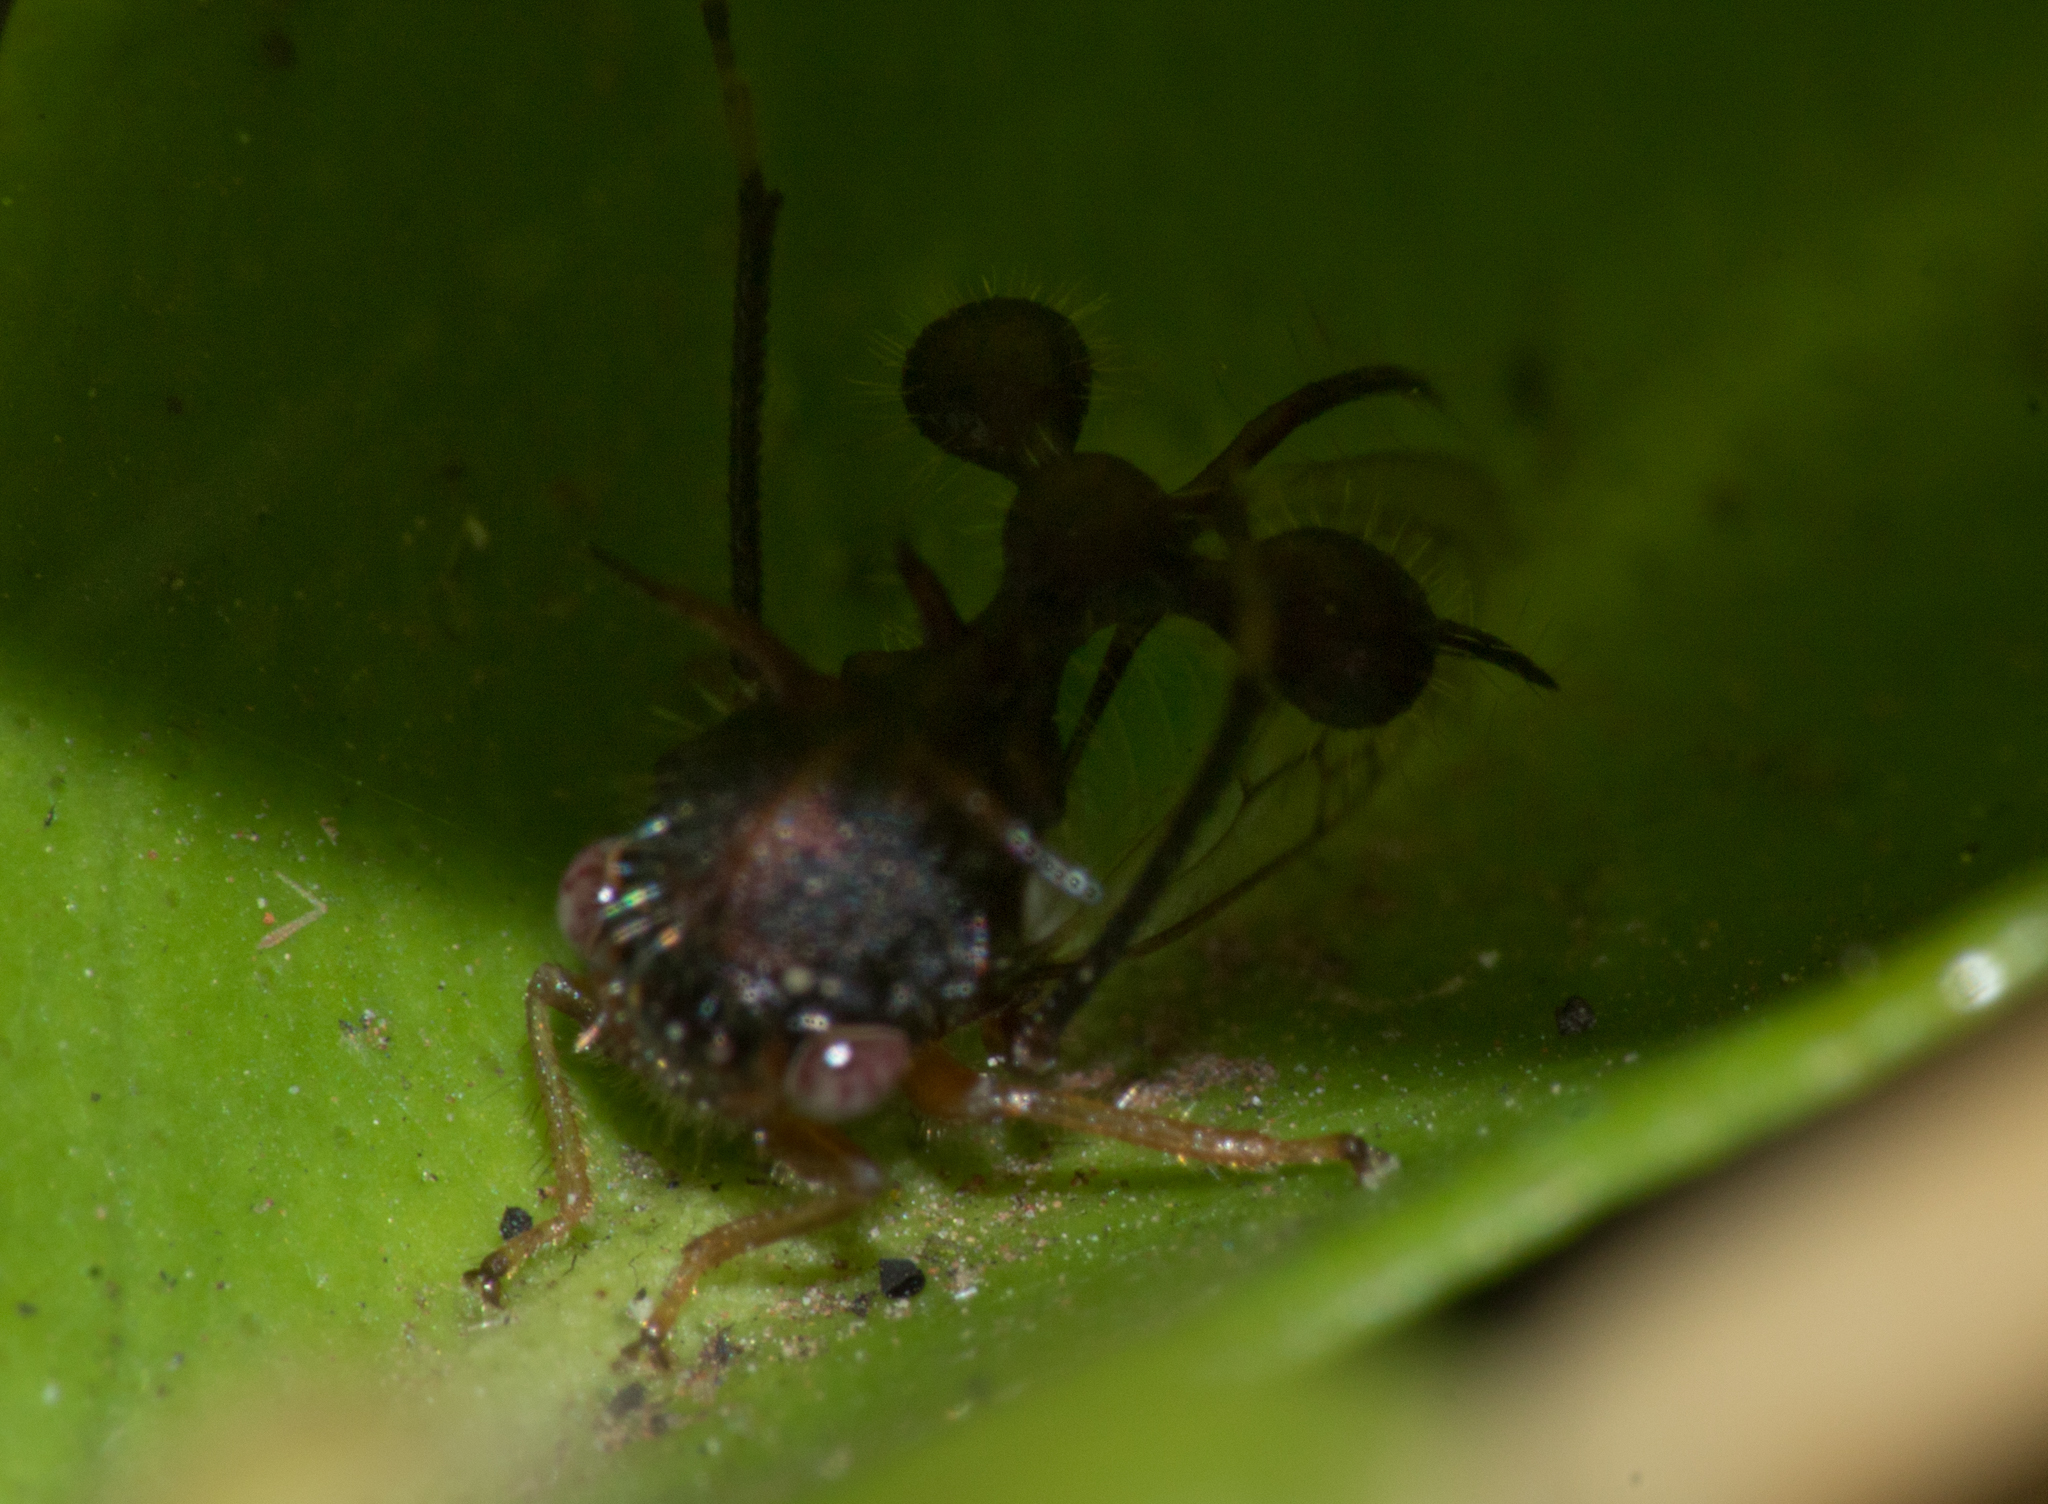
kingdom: Animalia
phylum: Arthropoda
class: Insecta
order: Hemiptera
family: Membracidae
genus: Cyphonia
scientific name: Cyphonia clavata
